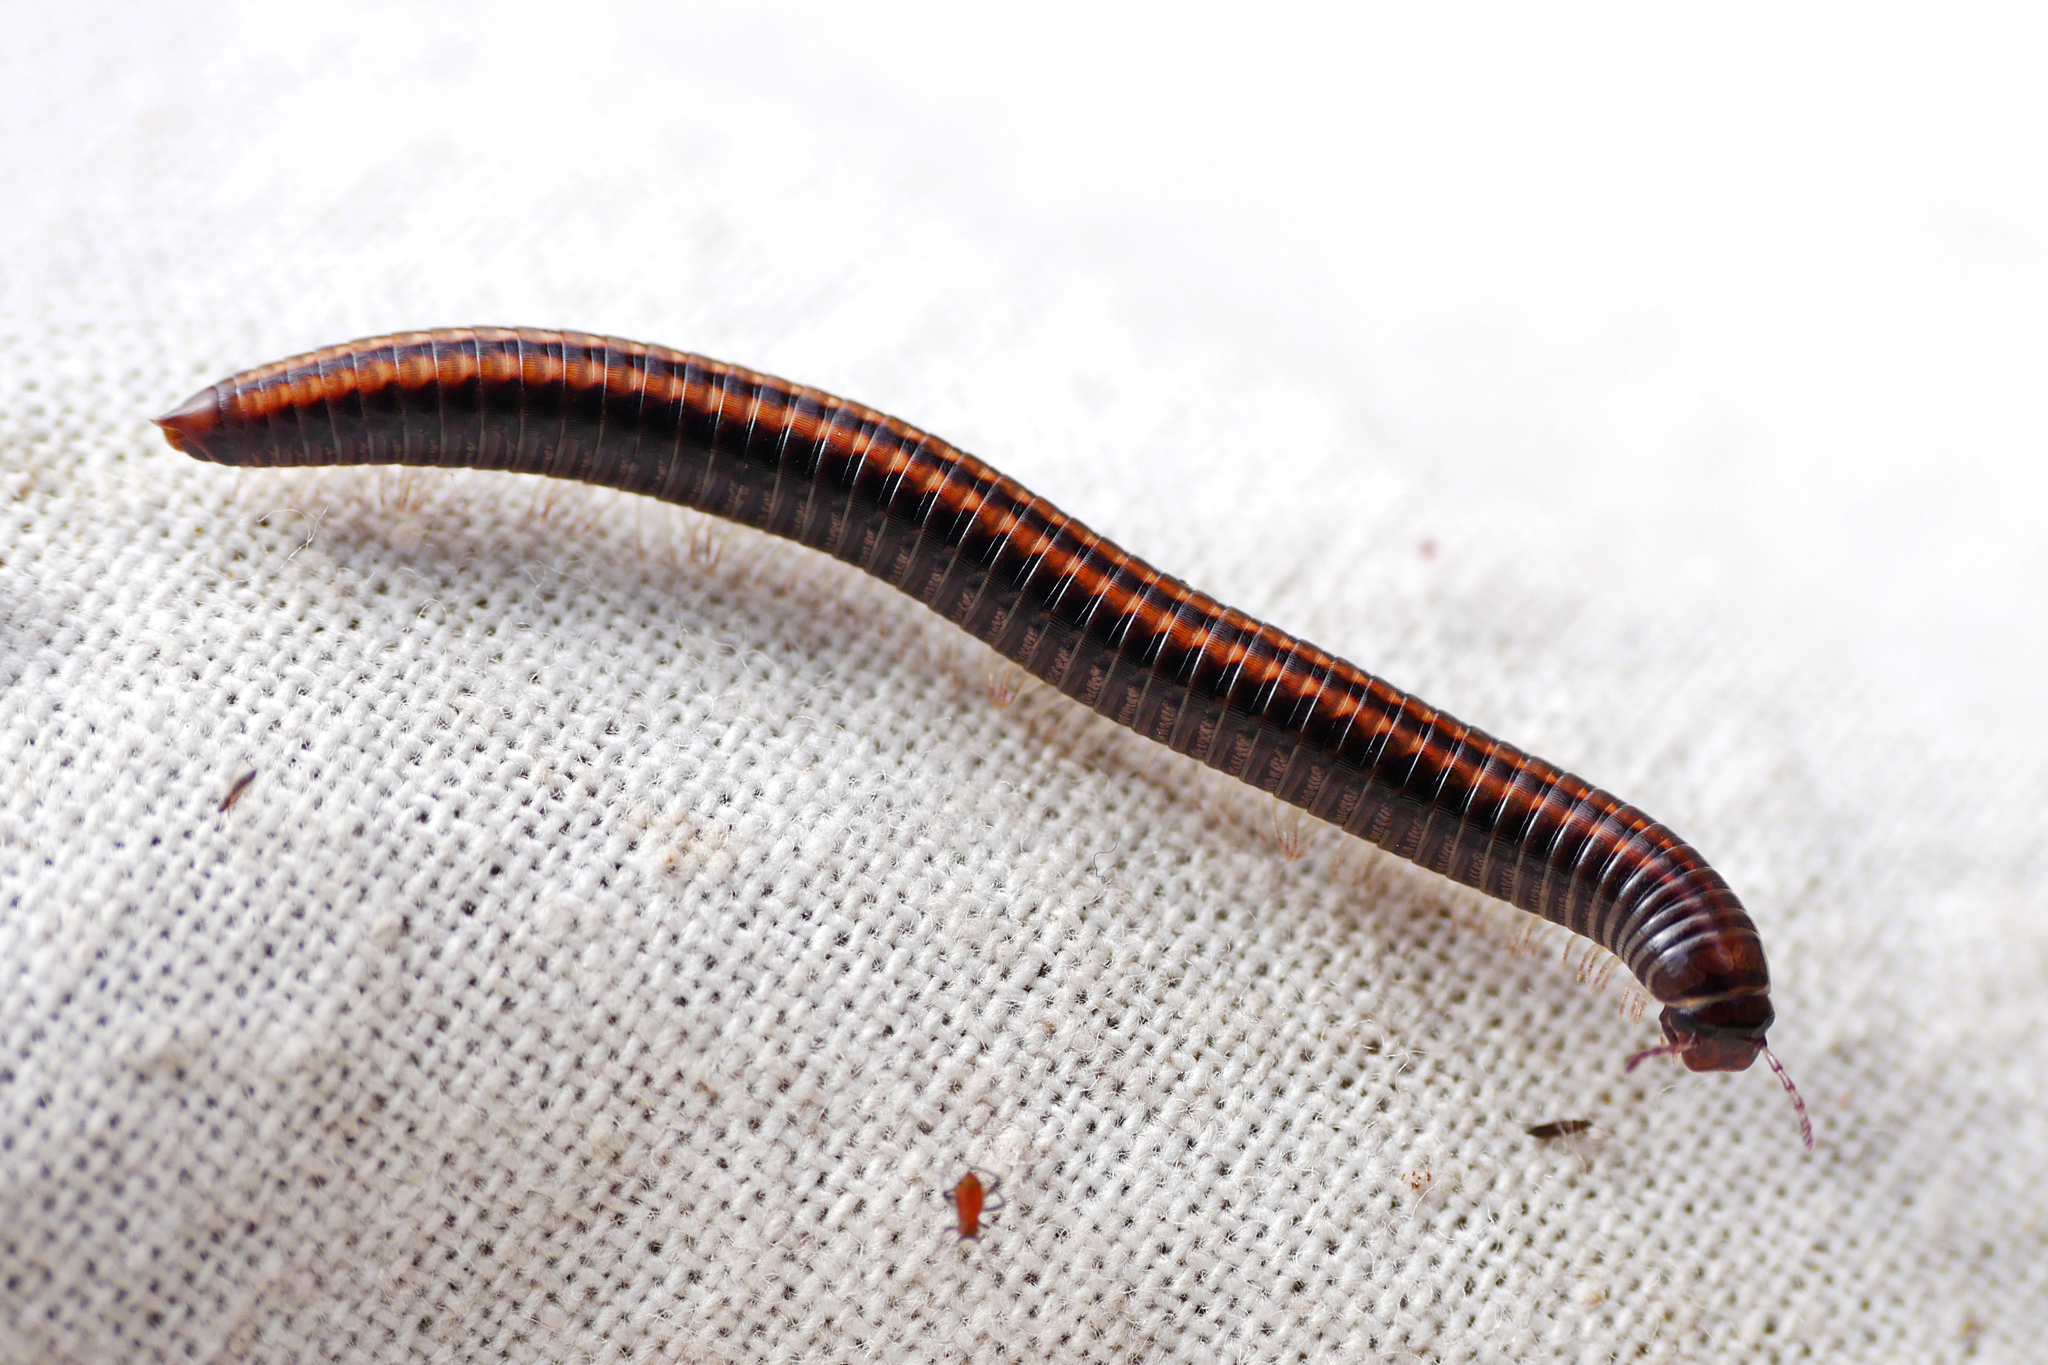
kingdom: Animalia
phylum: Arthropoda
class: Diplopoda
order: Julida
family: Julidae
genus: Ommatoiulus
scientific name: Ommatoiulus sabulosus
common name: Striped millipede
